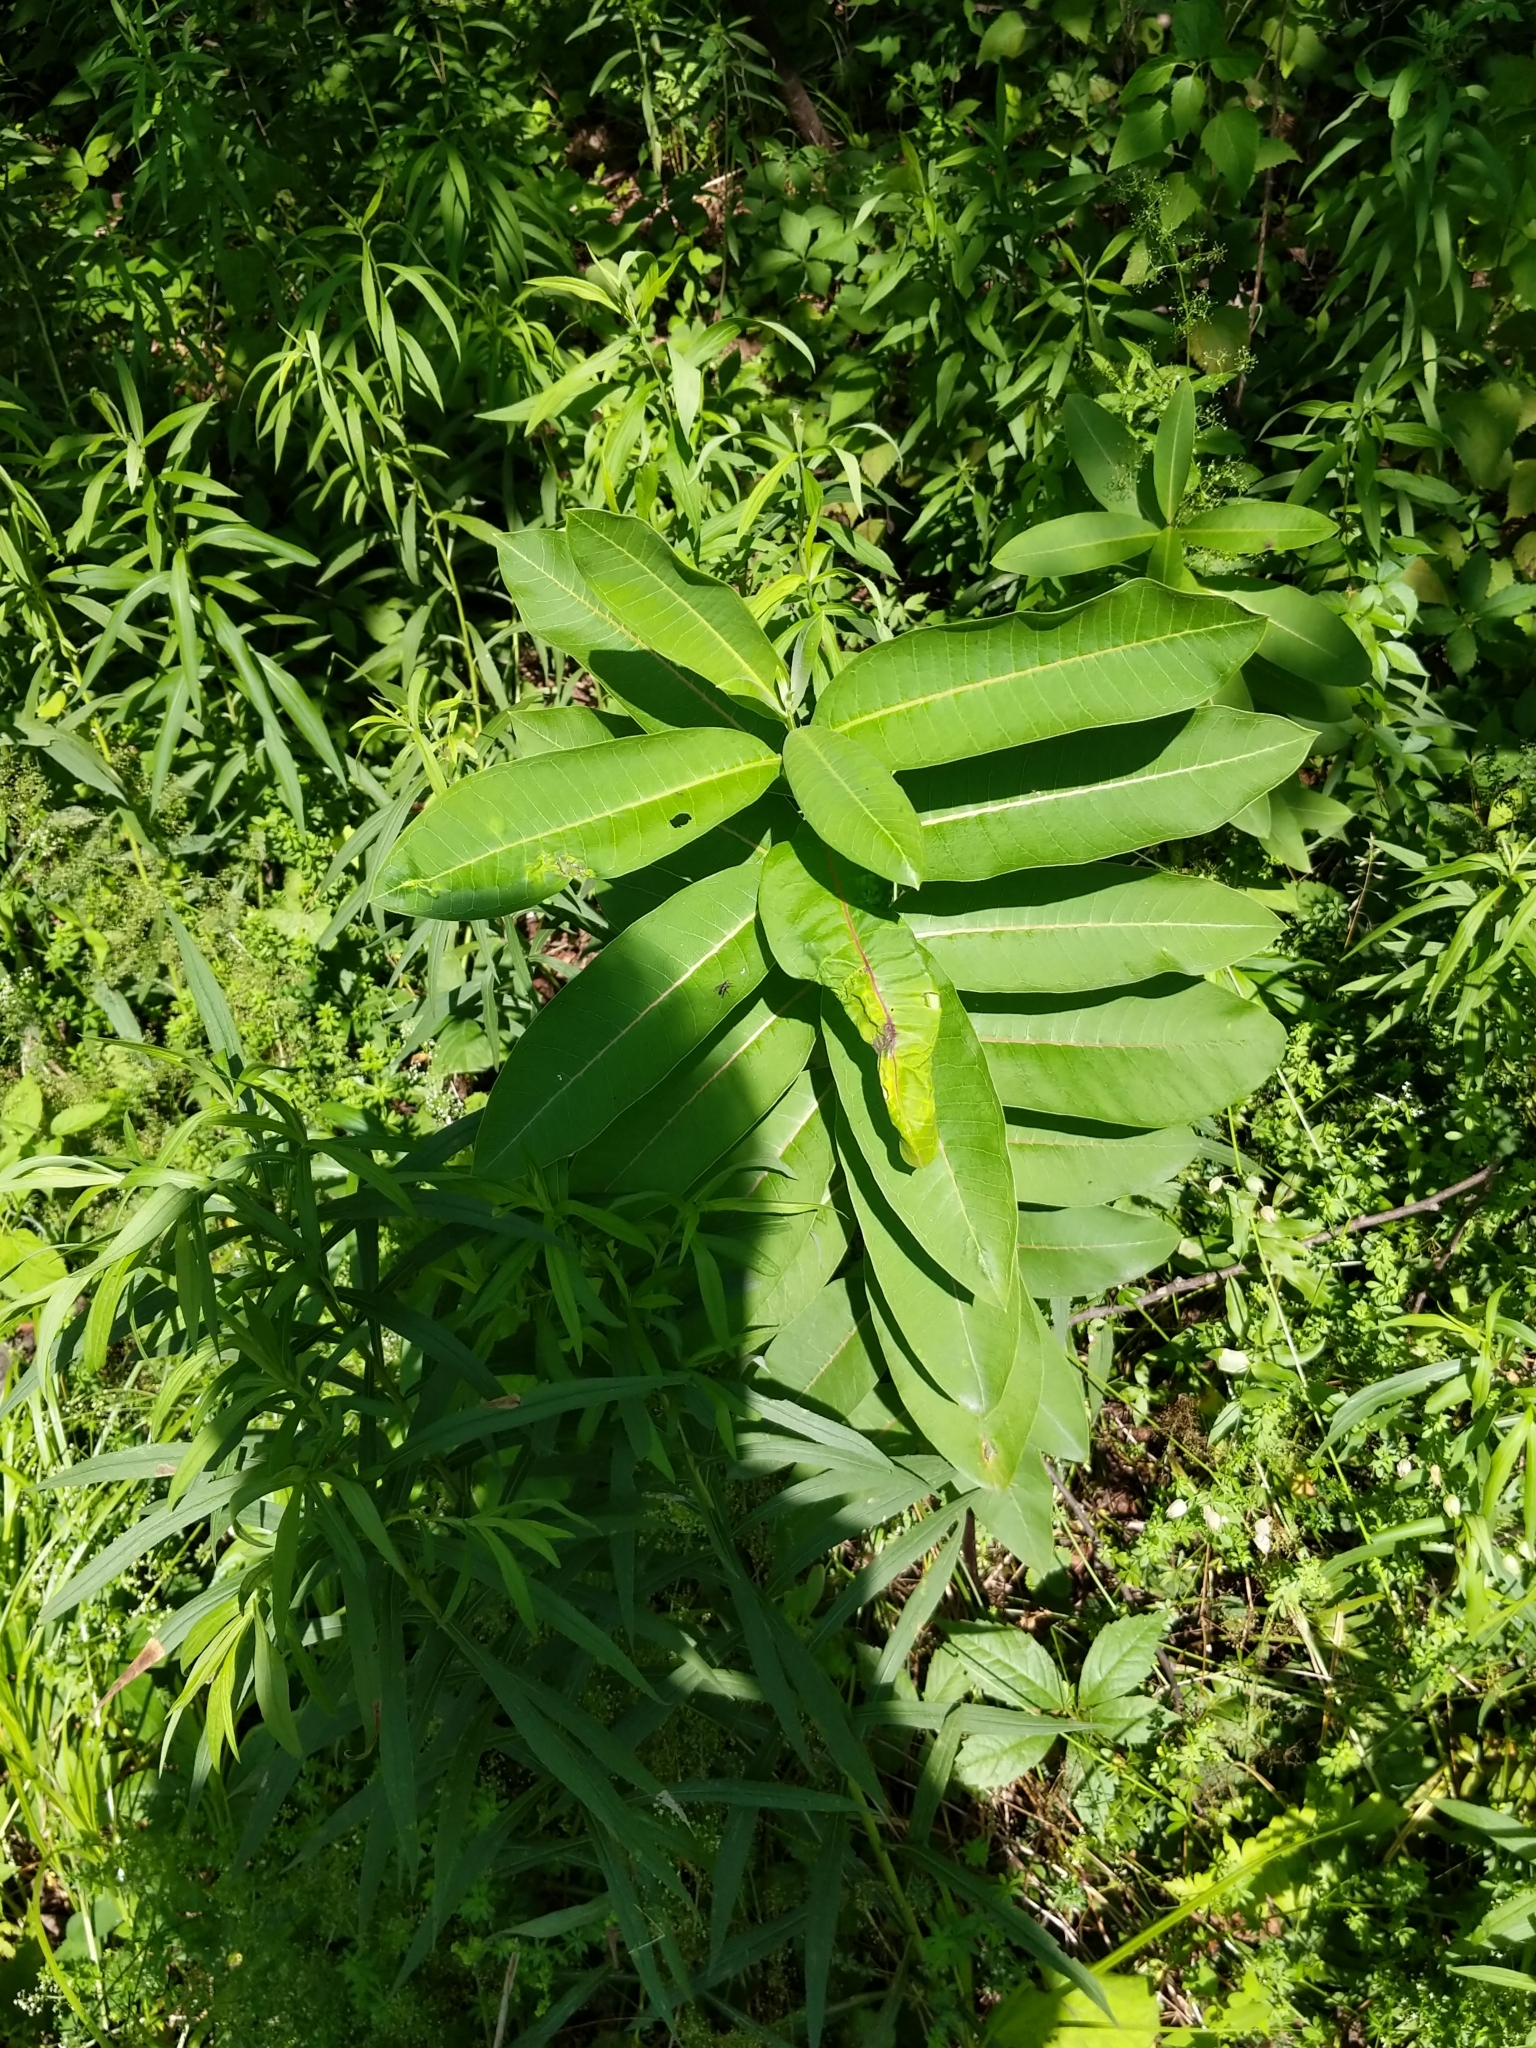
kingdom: Plantae
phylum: Tracheophyta
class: Magnoliopsida
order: Gentianales
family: Apocynaceae
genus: Asclepias
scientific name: Asclepias syriaca
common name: Common milkweed
